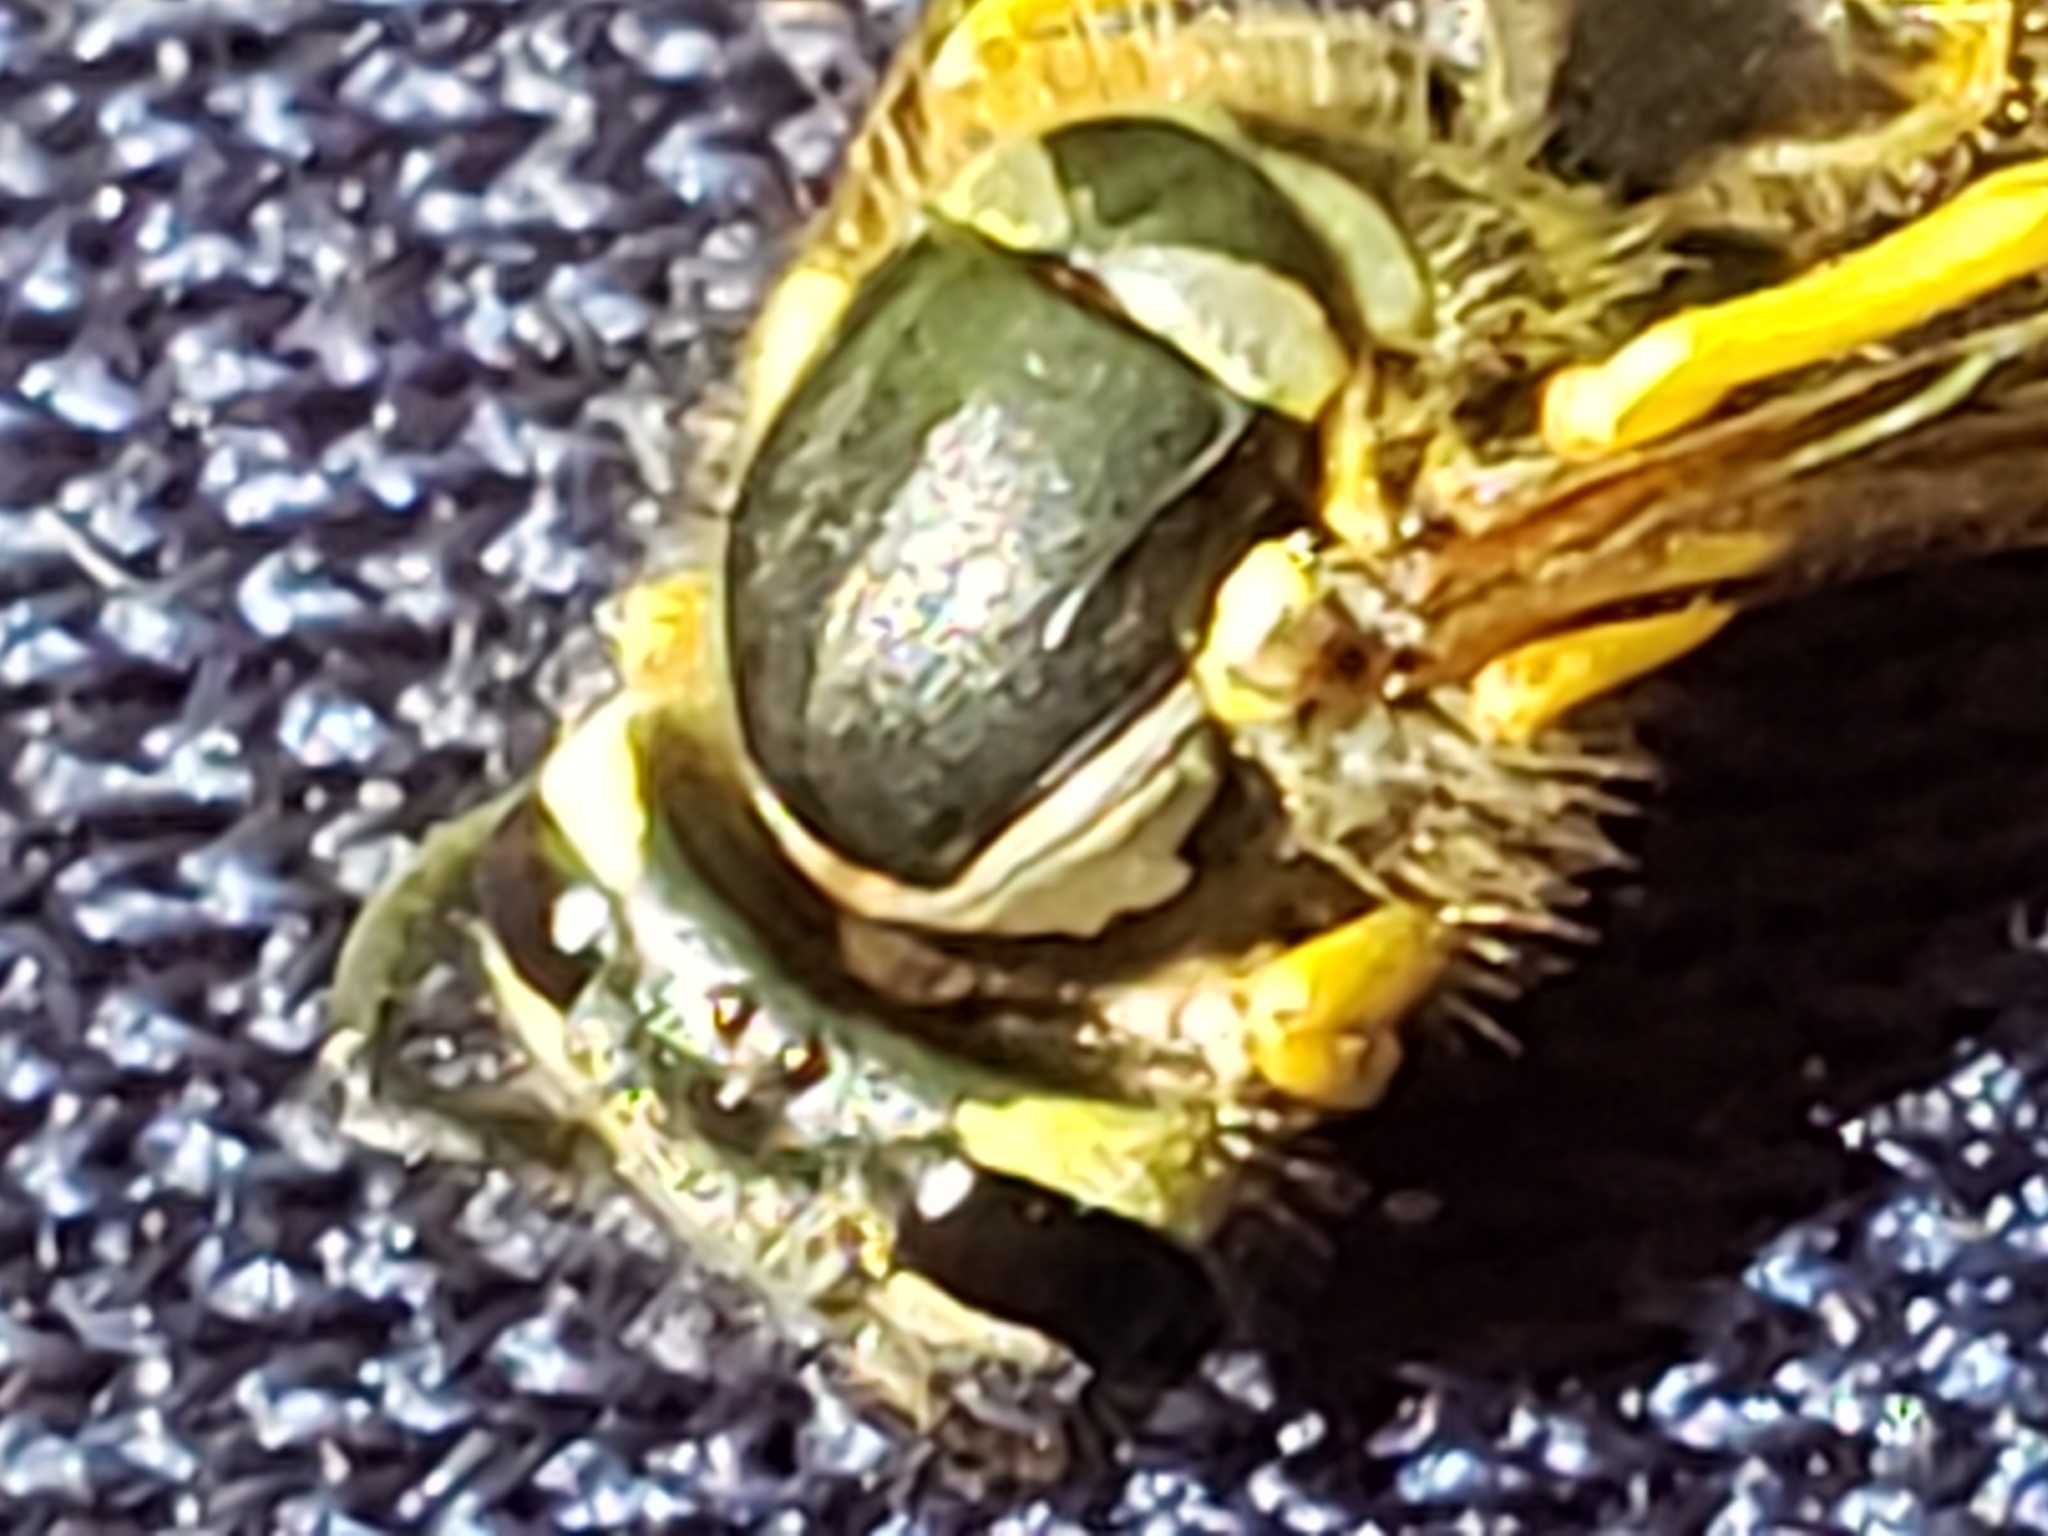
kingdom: Animalia
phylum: Arthropoda
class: Insecta
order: Hymenoptera
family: Vespidae
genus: Vespula
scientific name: Vespula maculifrons
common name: Eastern yellowjacket
